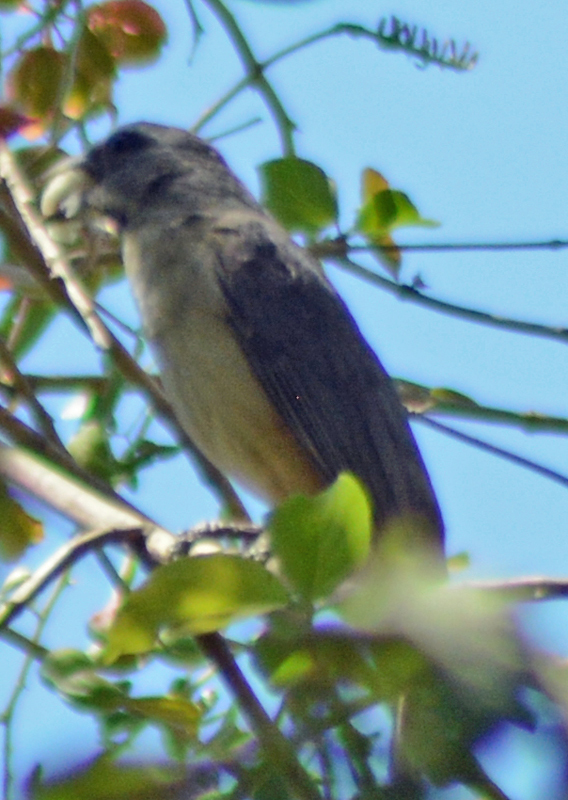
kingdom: Animalia
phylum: Chordata
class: Aves
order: Passeriformes
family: Thraupidae
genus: Saltator
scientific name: Saltator grandis
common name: Cinnamon-bellied saltator
